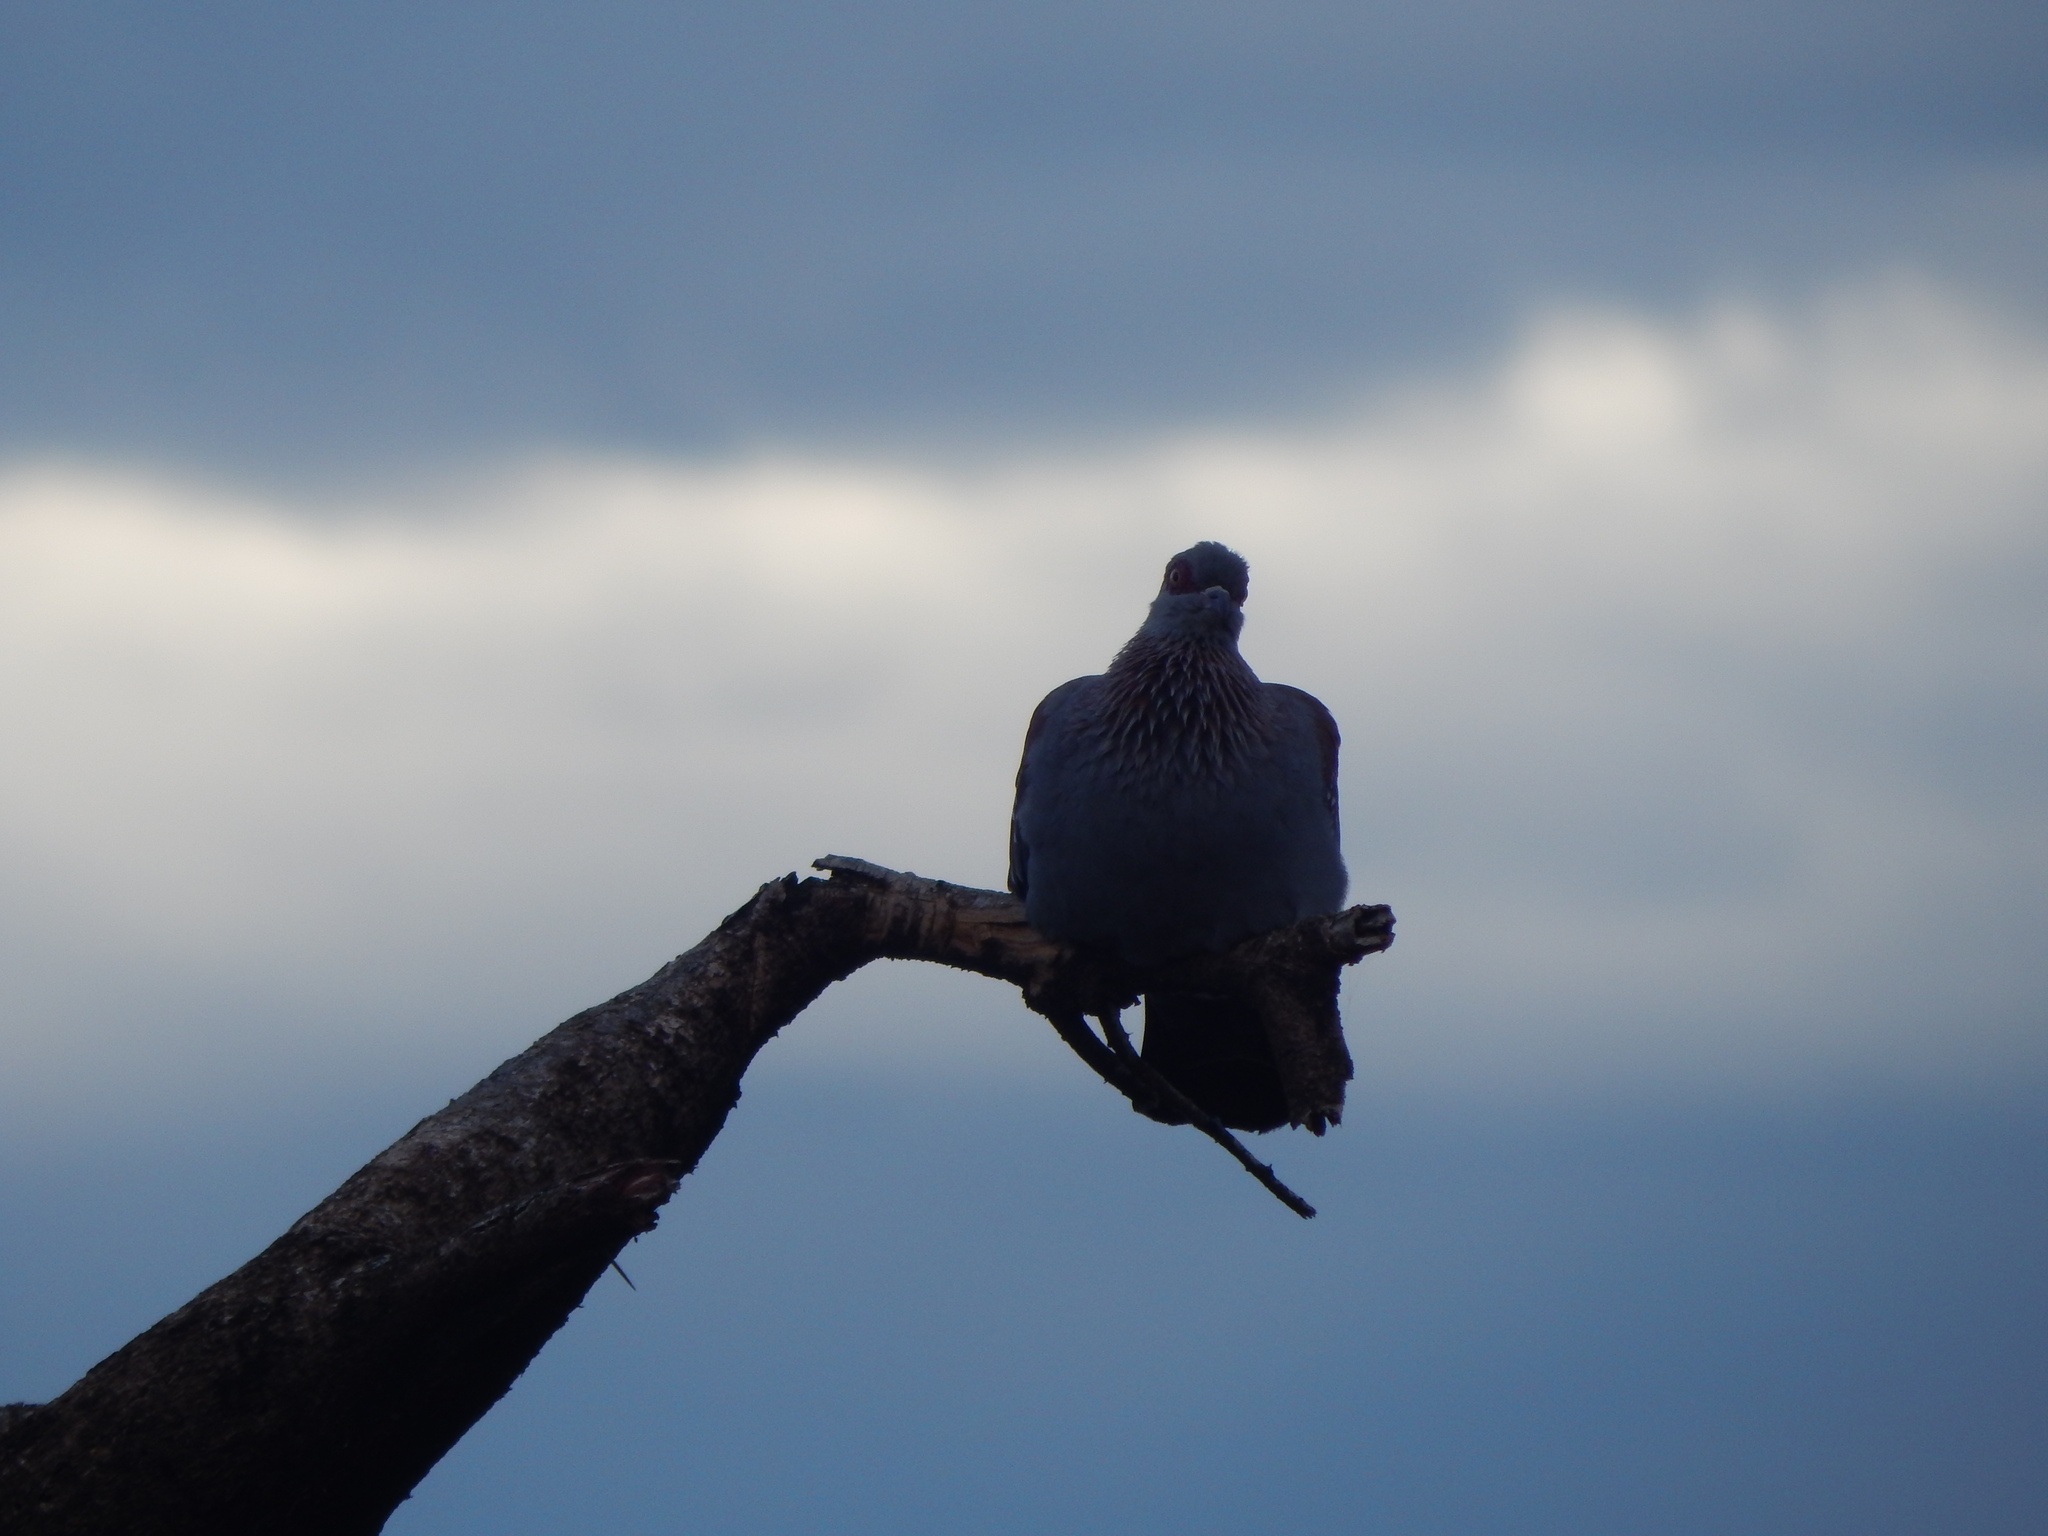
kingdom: Animalia
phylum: Chordata
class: Aves
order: Columbiformes
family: Columbidae
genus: Columba
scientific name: Columba guinea
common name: Speckled pigeon
